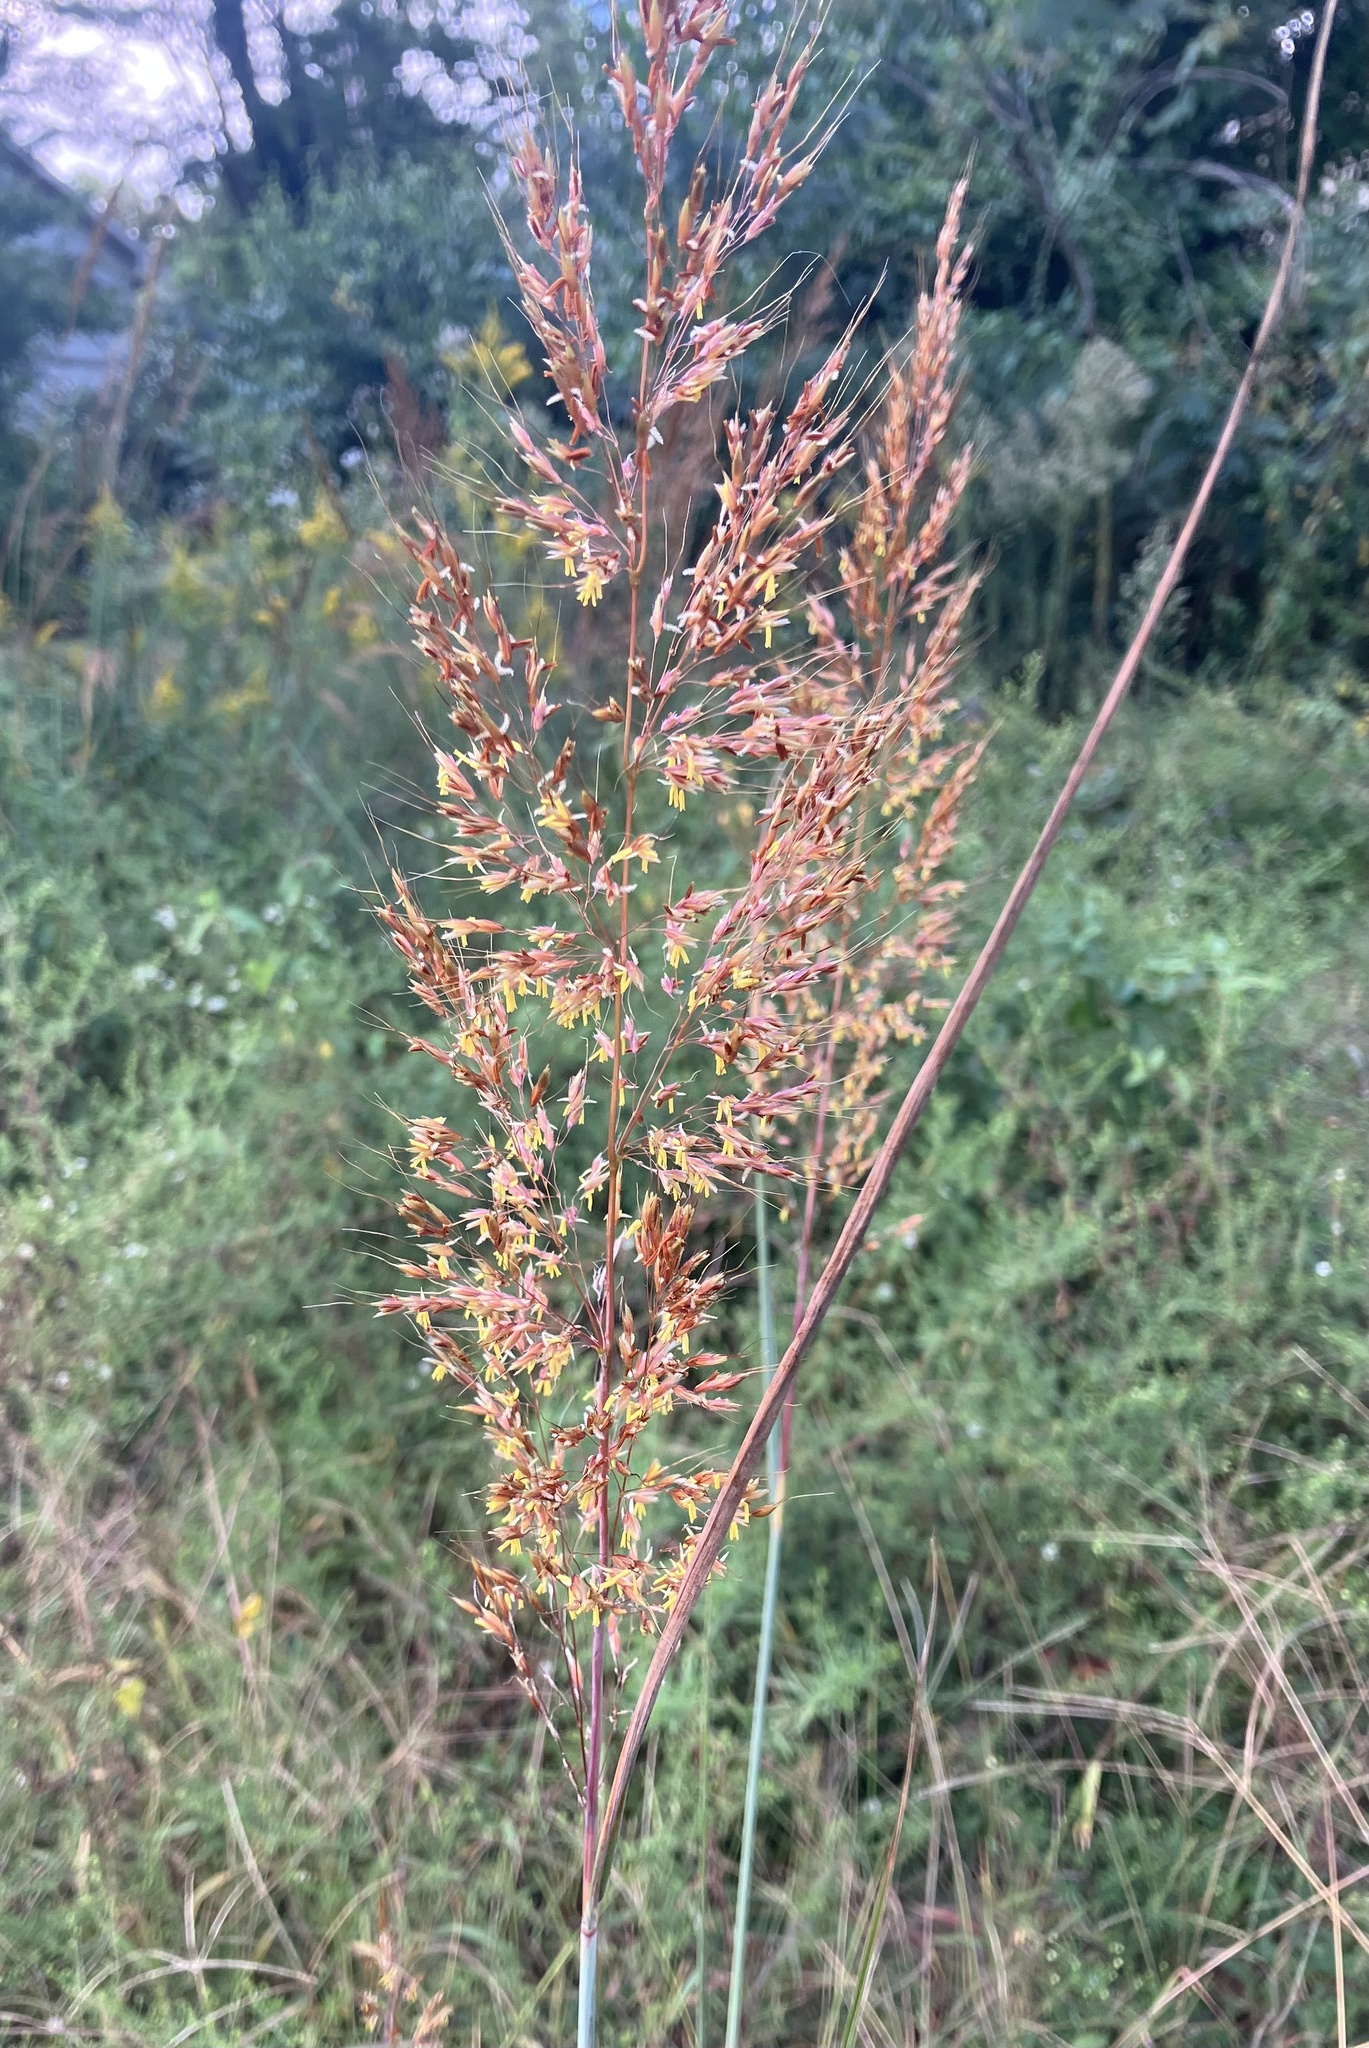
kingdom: Plantae
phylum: Tracheophyta
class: Liliopsida
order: Poales
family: Poaceae
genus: Sorghastrum
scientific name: Sorghastrum nutans
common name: Indian grass
